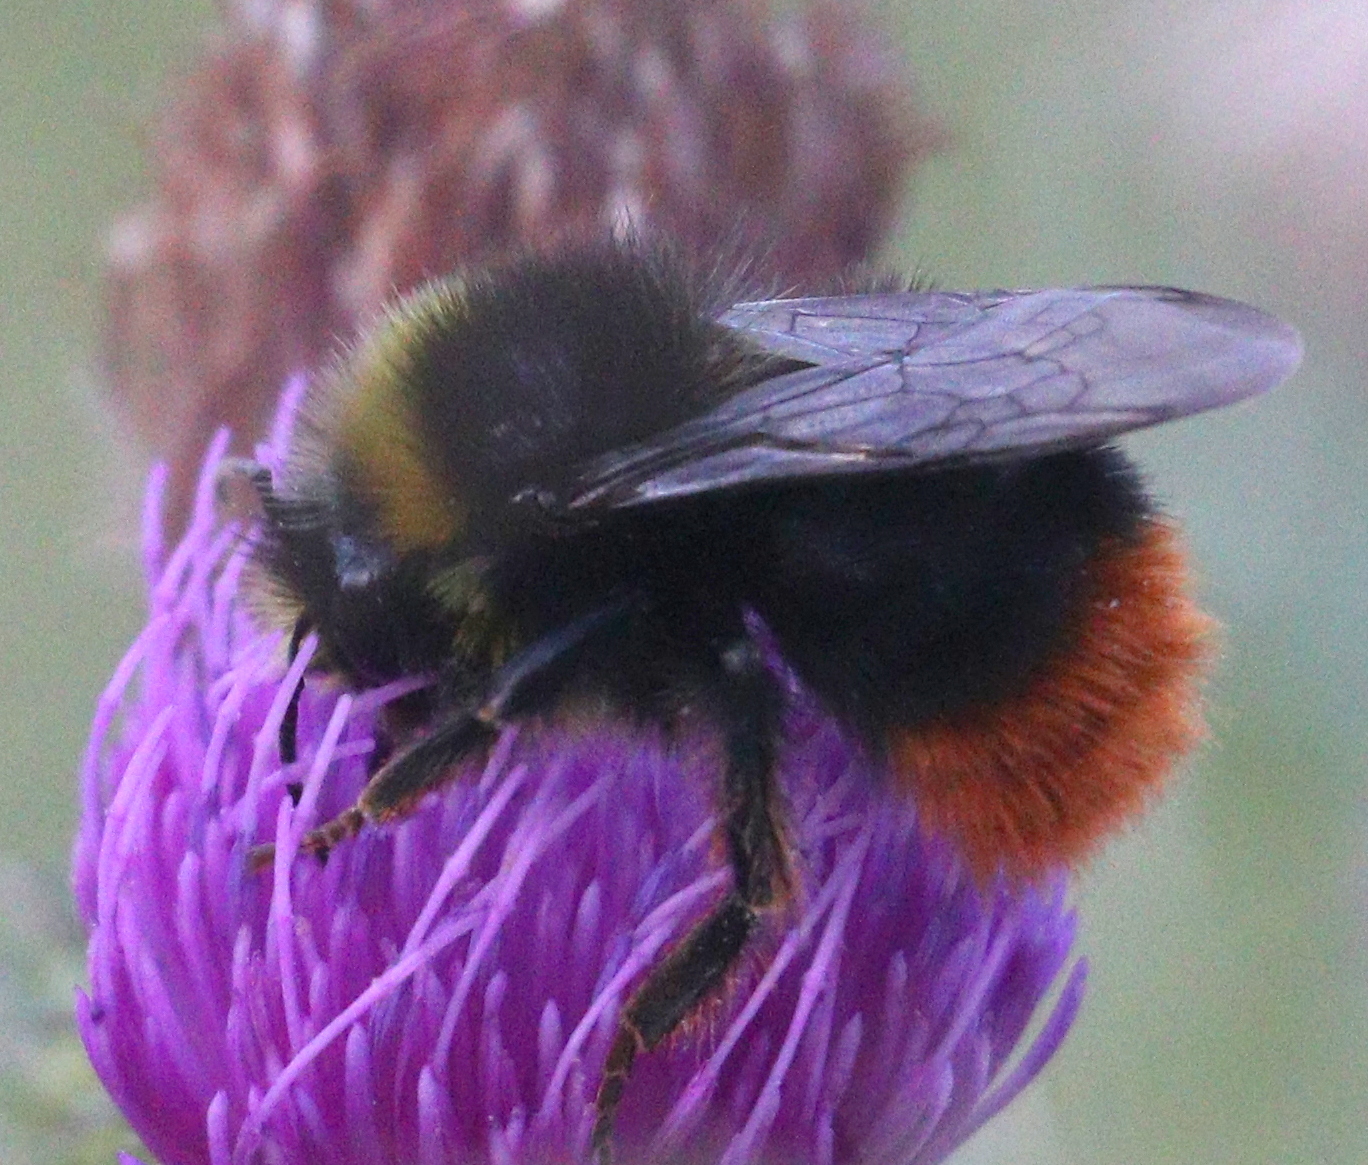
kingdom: Animalia
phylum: Arthropoda
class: Insecta
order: Hymenoptera
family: Apidae
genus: Bombus
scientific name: Bombus lapidarius
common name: Large red-tailed humble-bee
